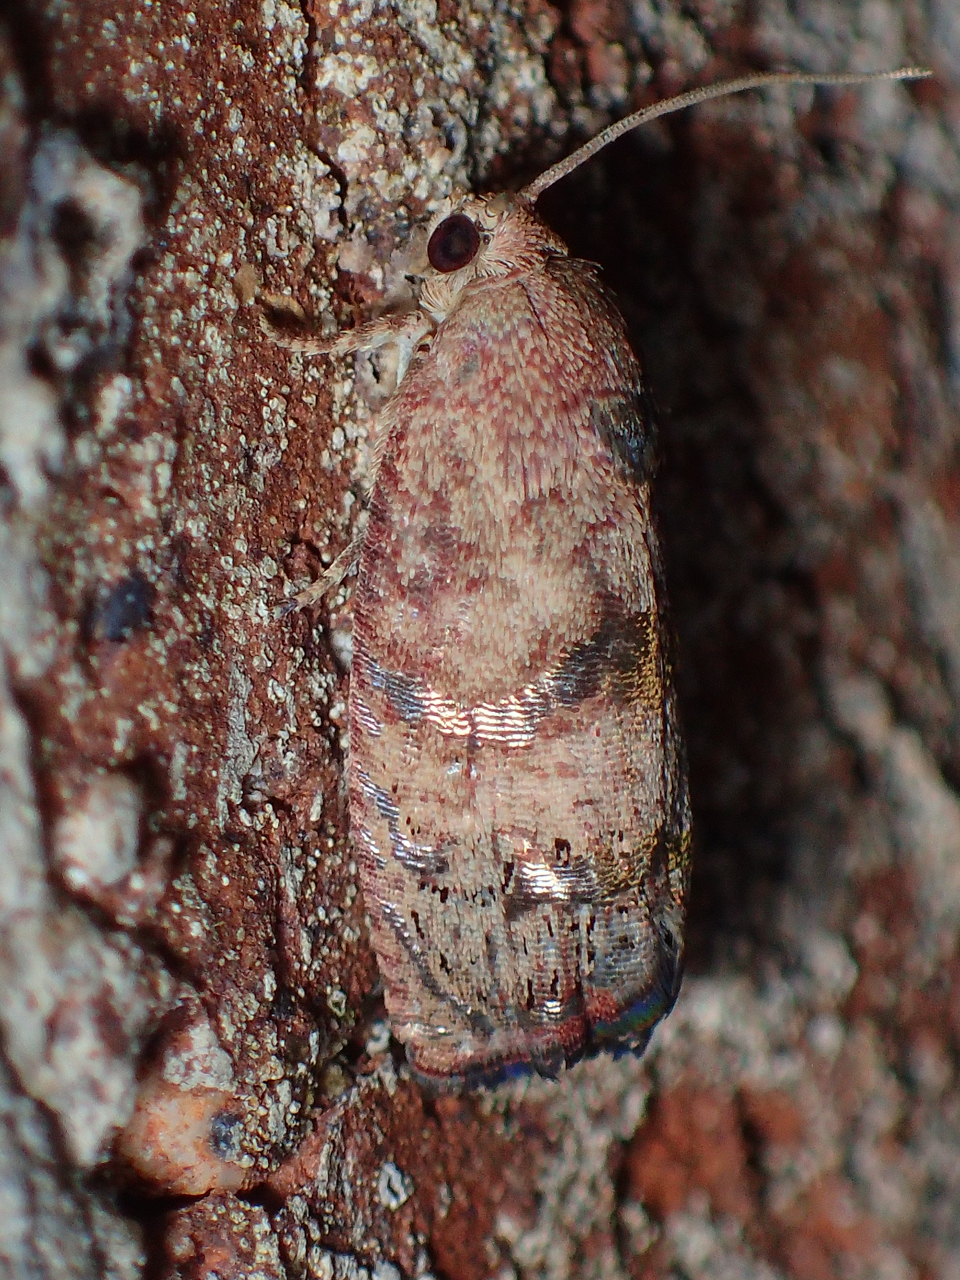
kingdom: Animalia
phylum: Arthropoda
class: Insecta
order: Lepidoptera
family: Tortricidae
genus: Cydia
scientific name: Cydia latiferreana
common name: Filbertworm moth
